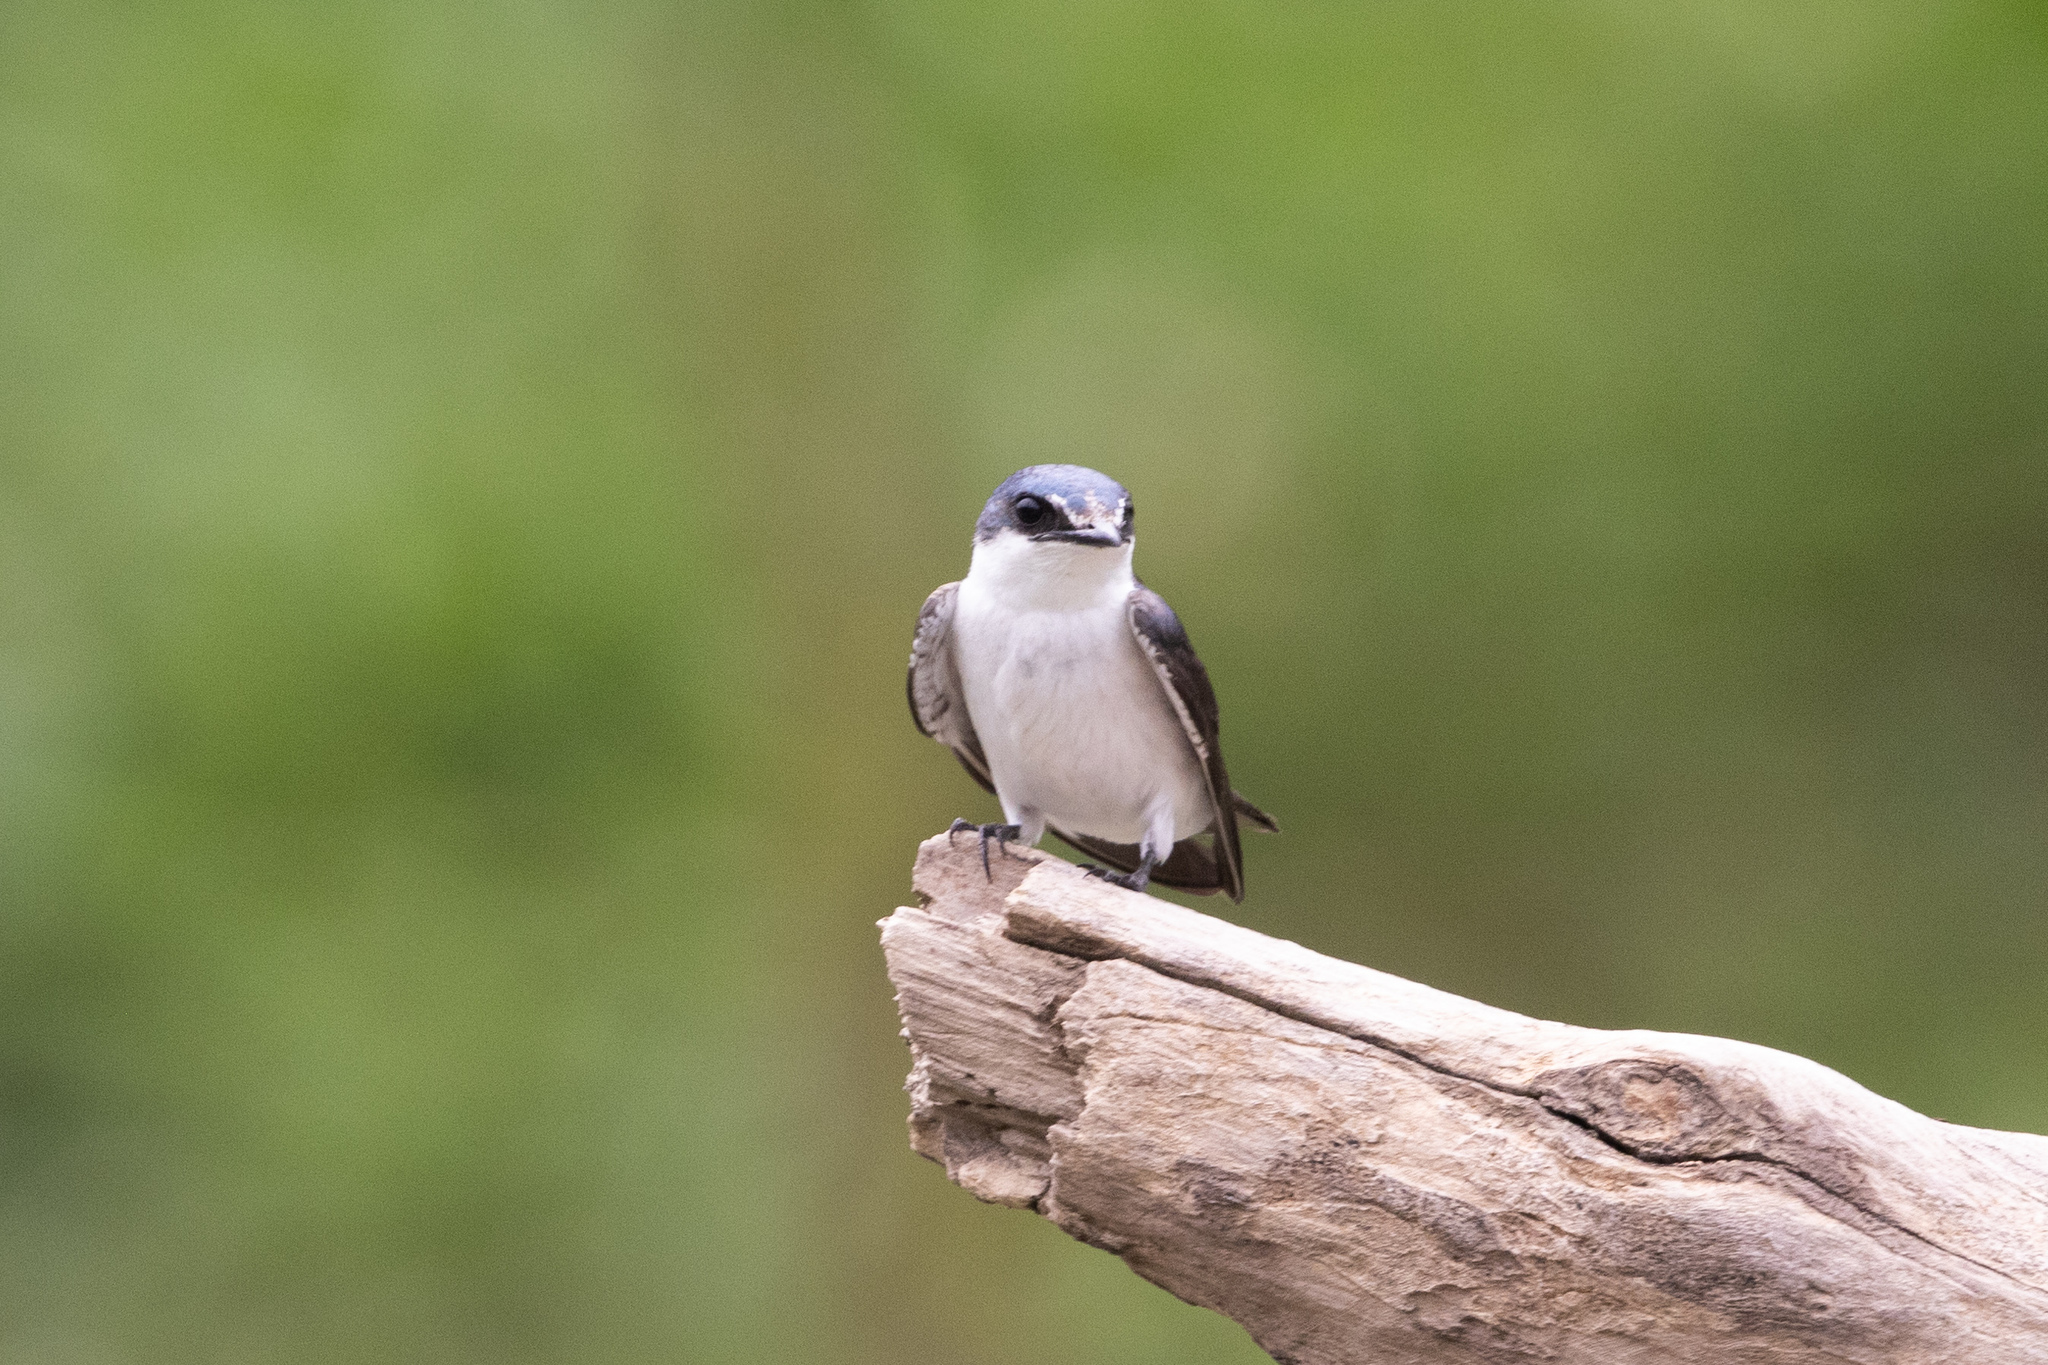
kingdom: Animalia
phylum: Chordata
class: Aves
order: Passeriformes
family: Hirundinidae
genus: Tachycineta
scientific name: Tachycineta albilinea
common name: Mangrove swallow
